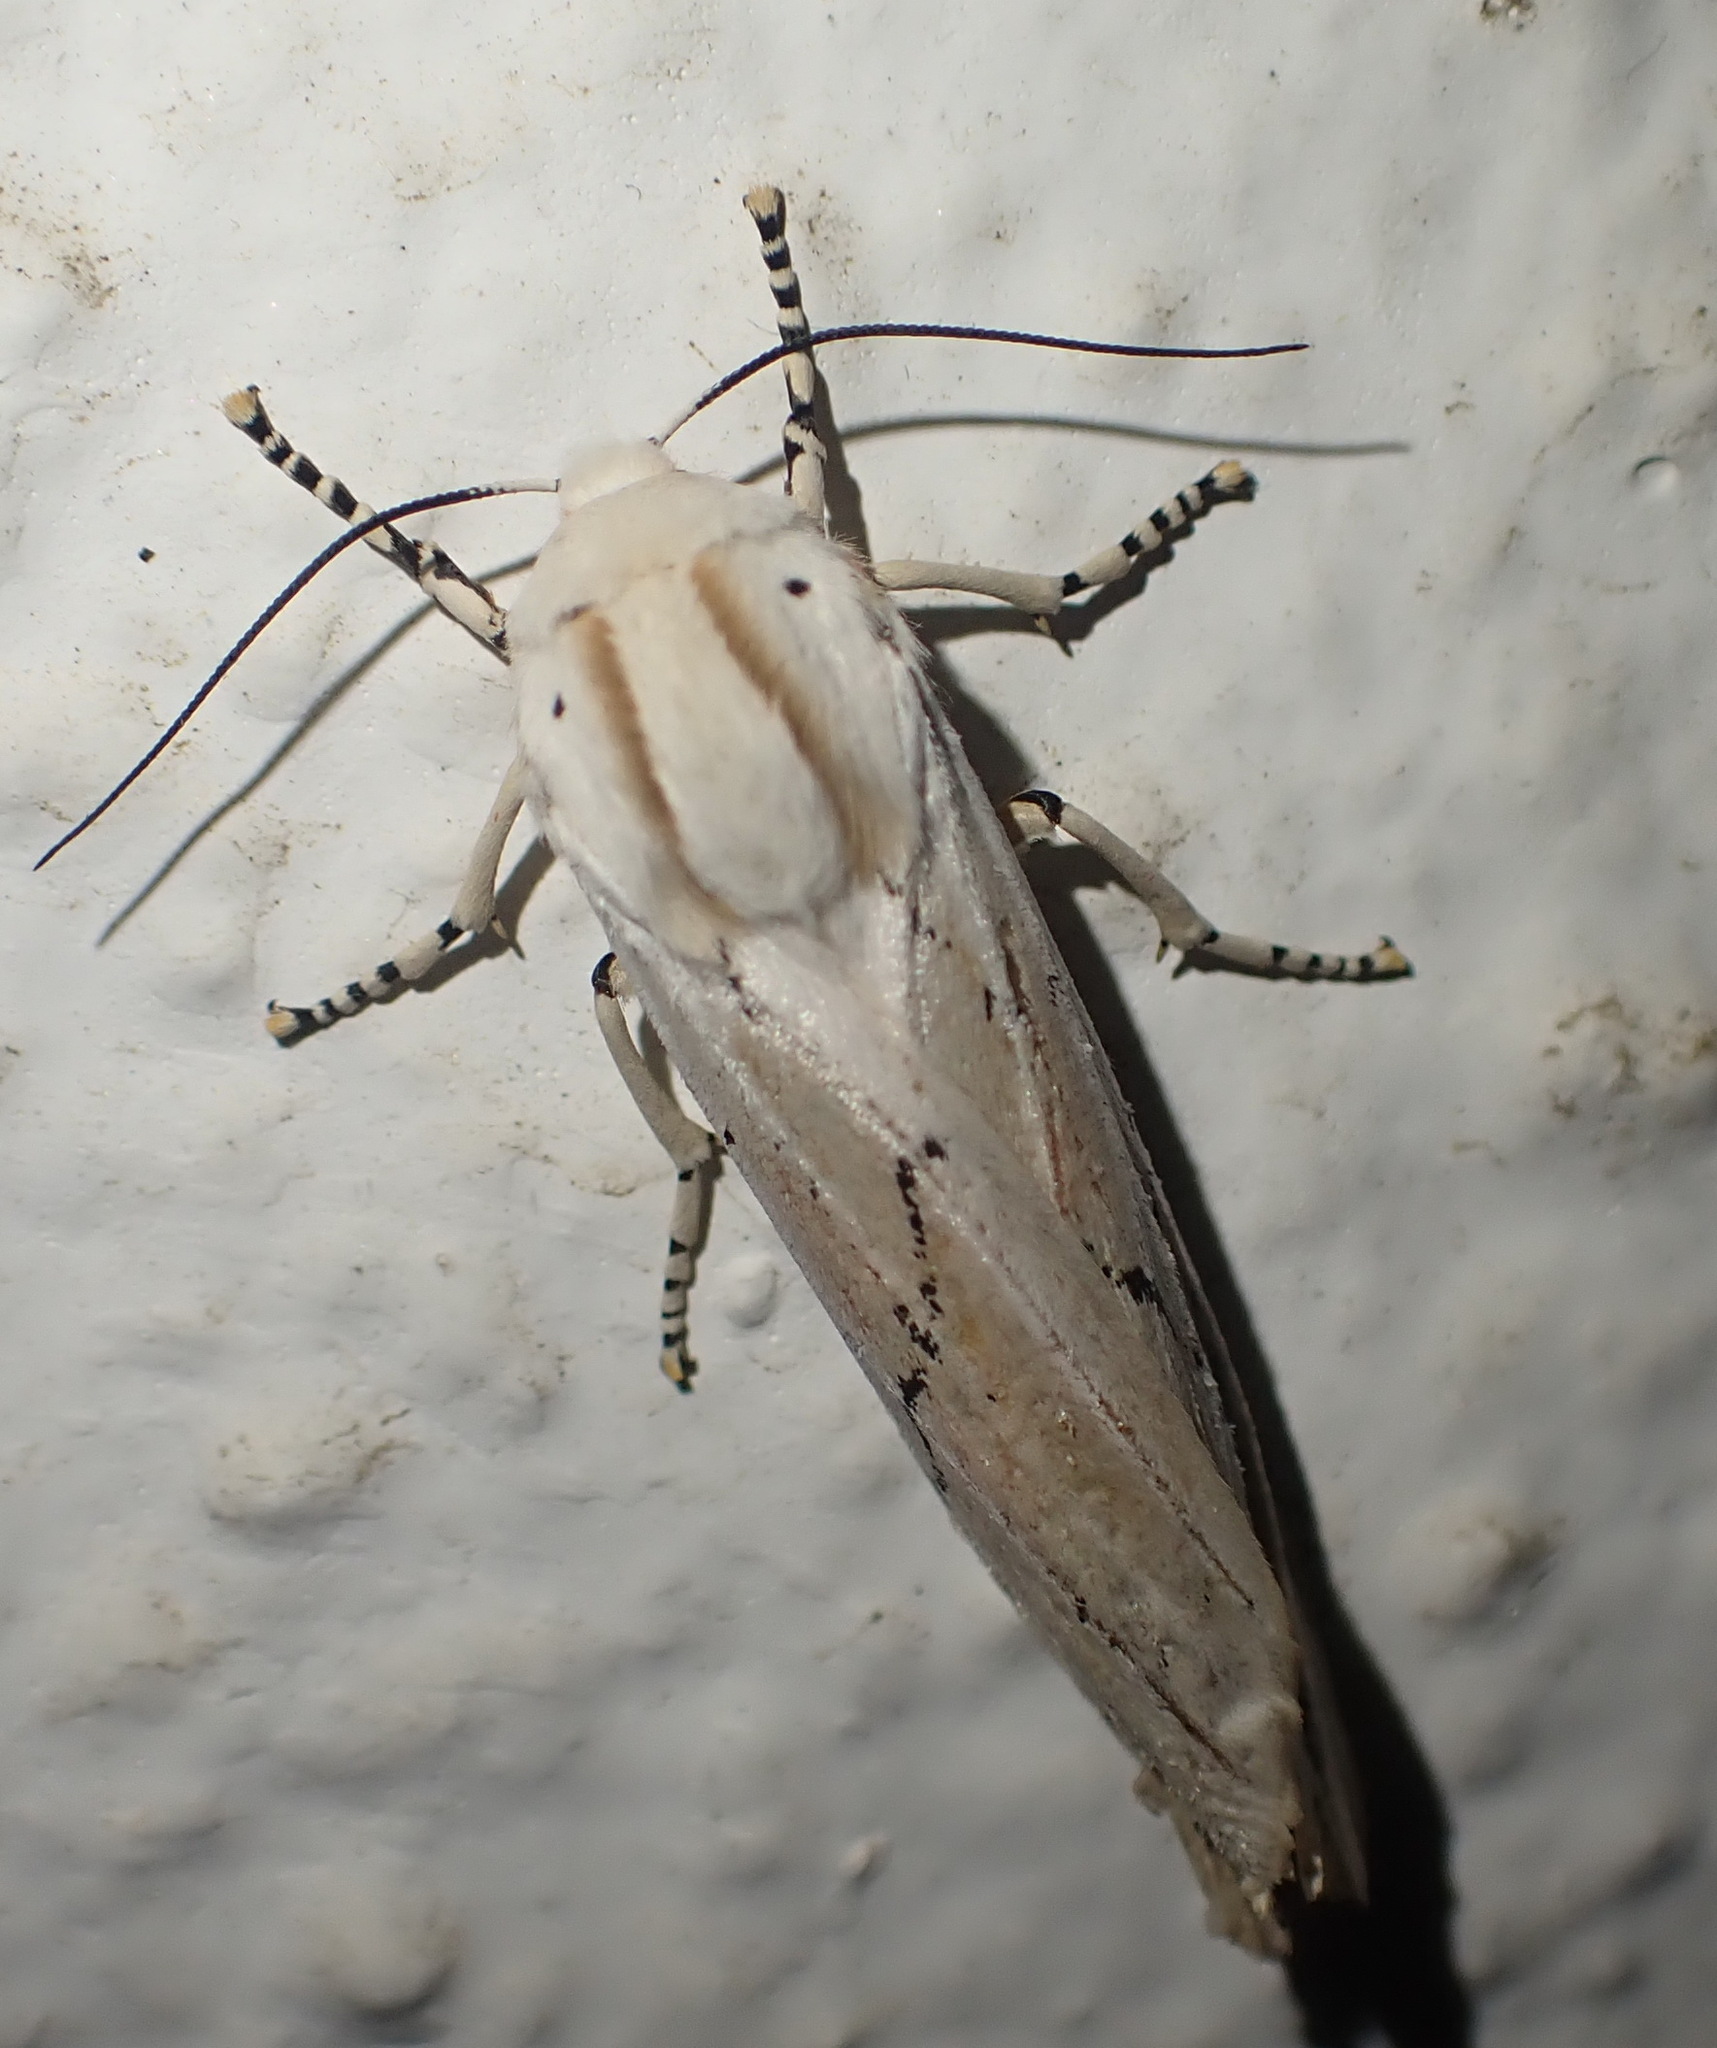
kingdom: Animalia
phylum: Arthropoda
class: Insecta
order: Lepidoptera
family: Erebidae
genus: Rhodogastria
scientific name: Rhodogastria amasis
